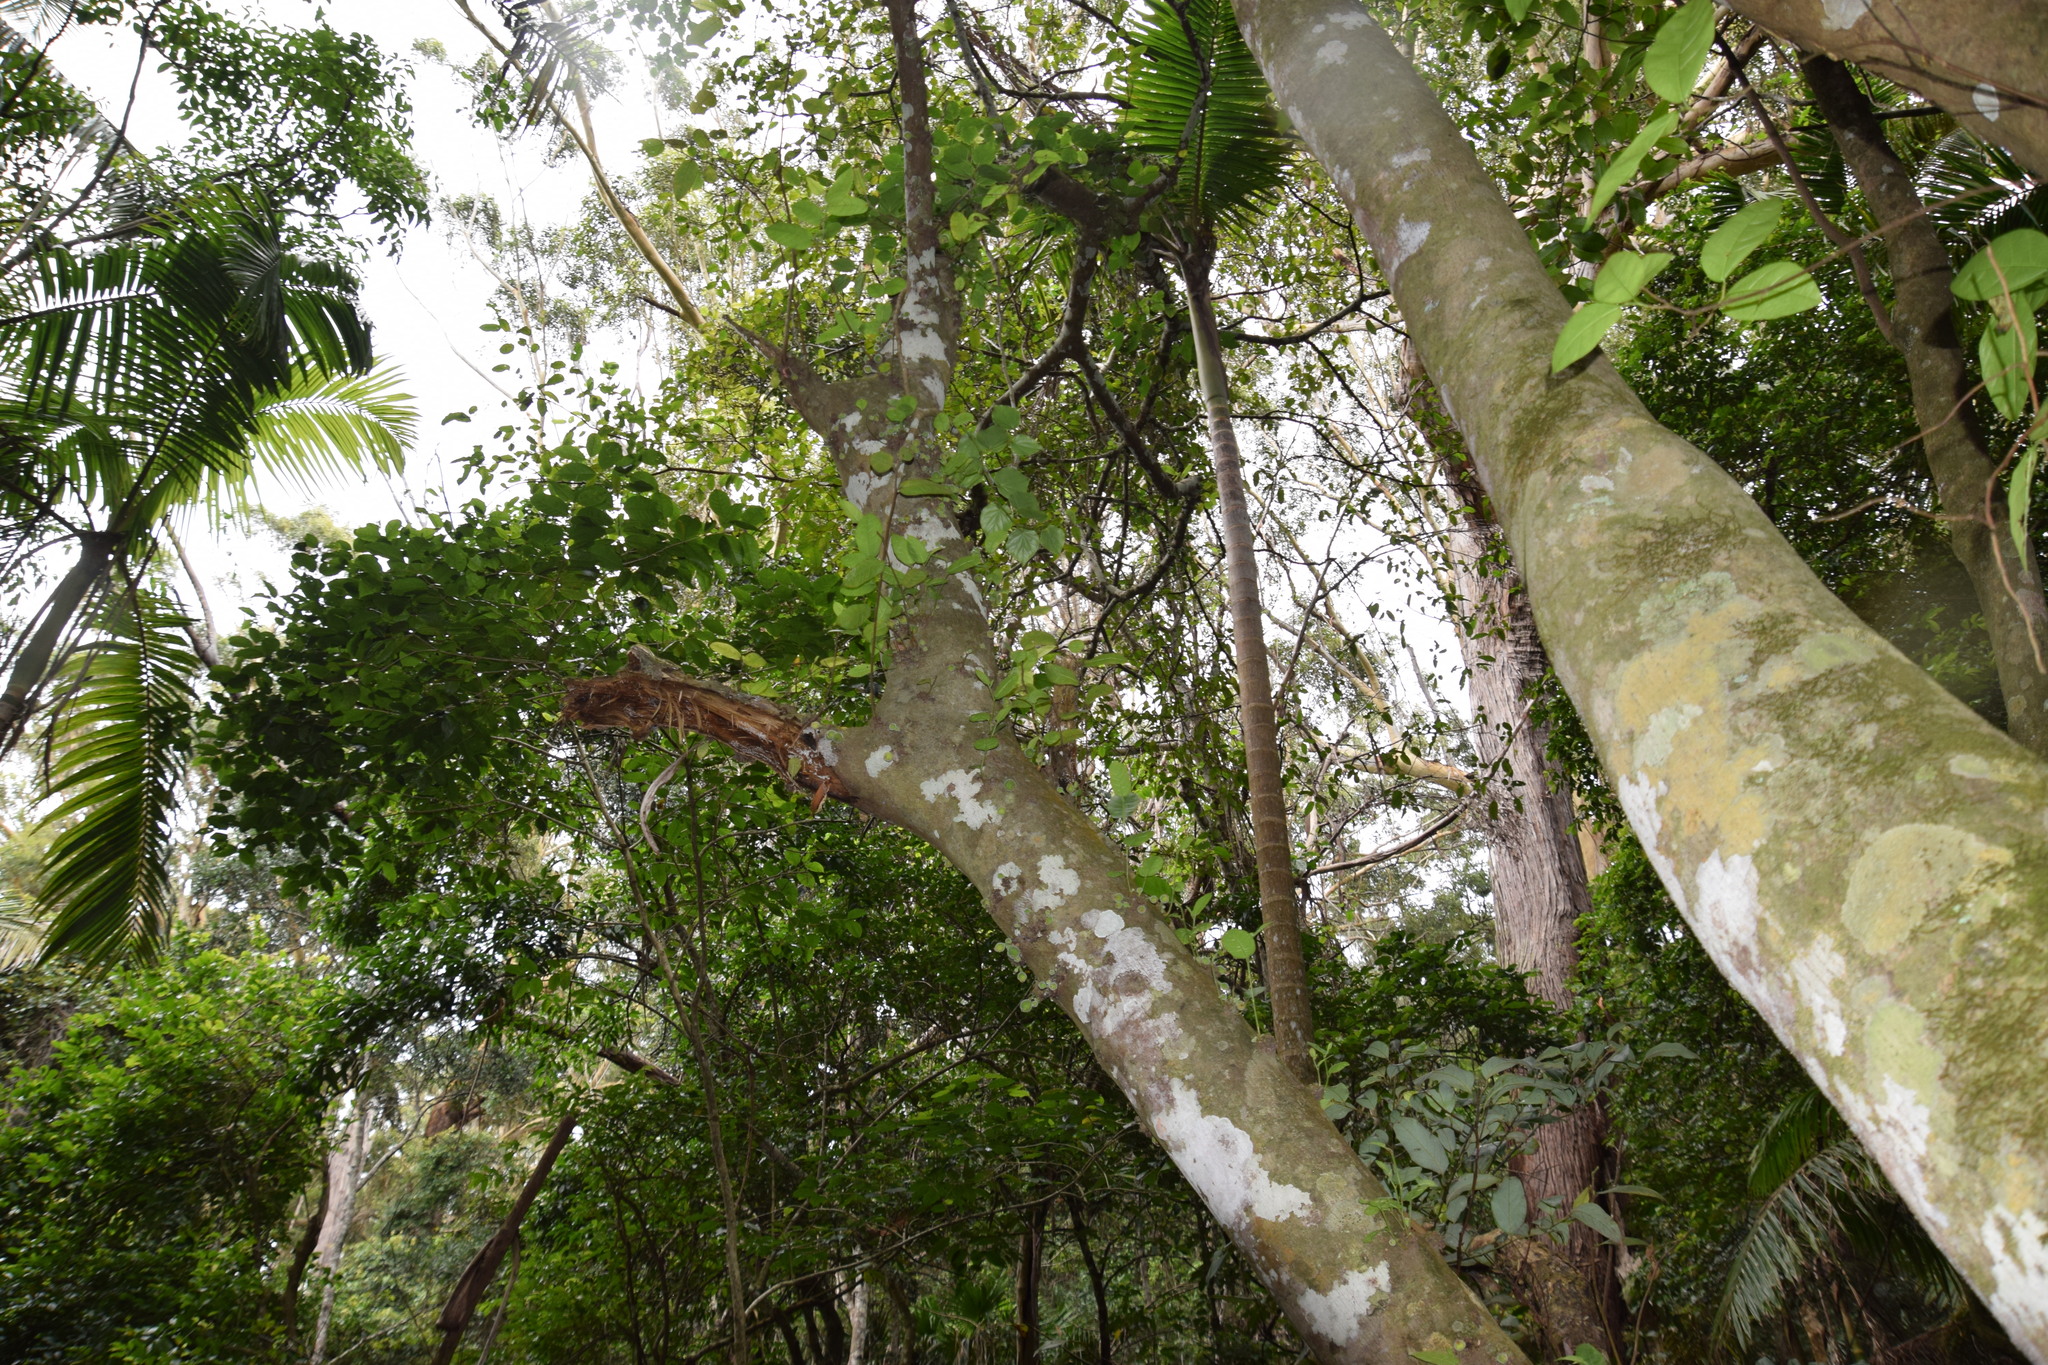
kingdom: Plantae
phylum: Tracheophyta
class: Magnoliopsida
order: Rosales
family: Moraceae
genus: Ficus
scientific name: Ficus coronata
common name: Creek sandpaper fig
